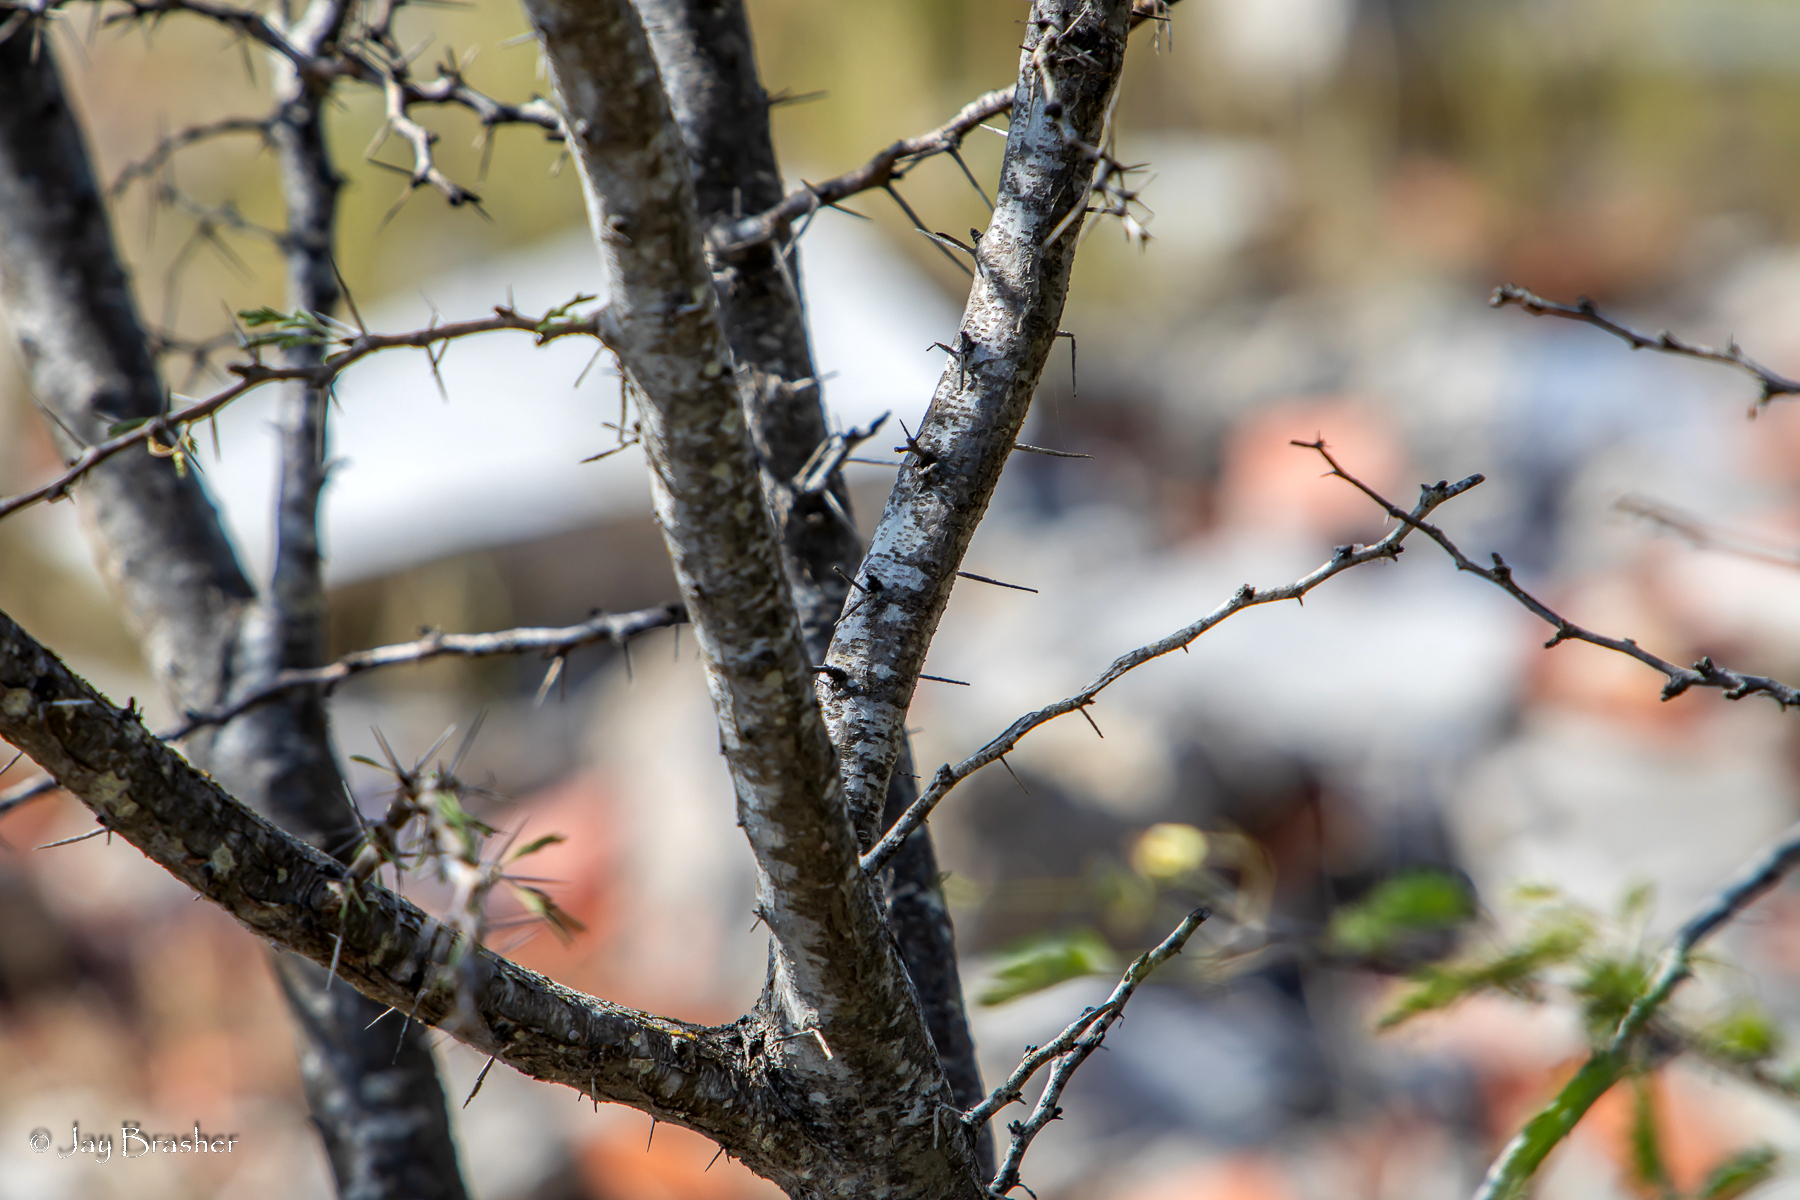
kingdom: Plantae
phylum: Tracheophyta
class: Magnoliopsida
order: Fabales
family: Fabaceae
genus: Vachellia
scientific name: Vachellia tortuosa
